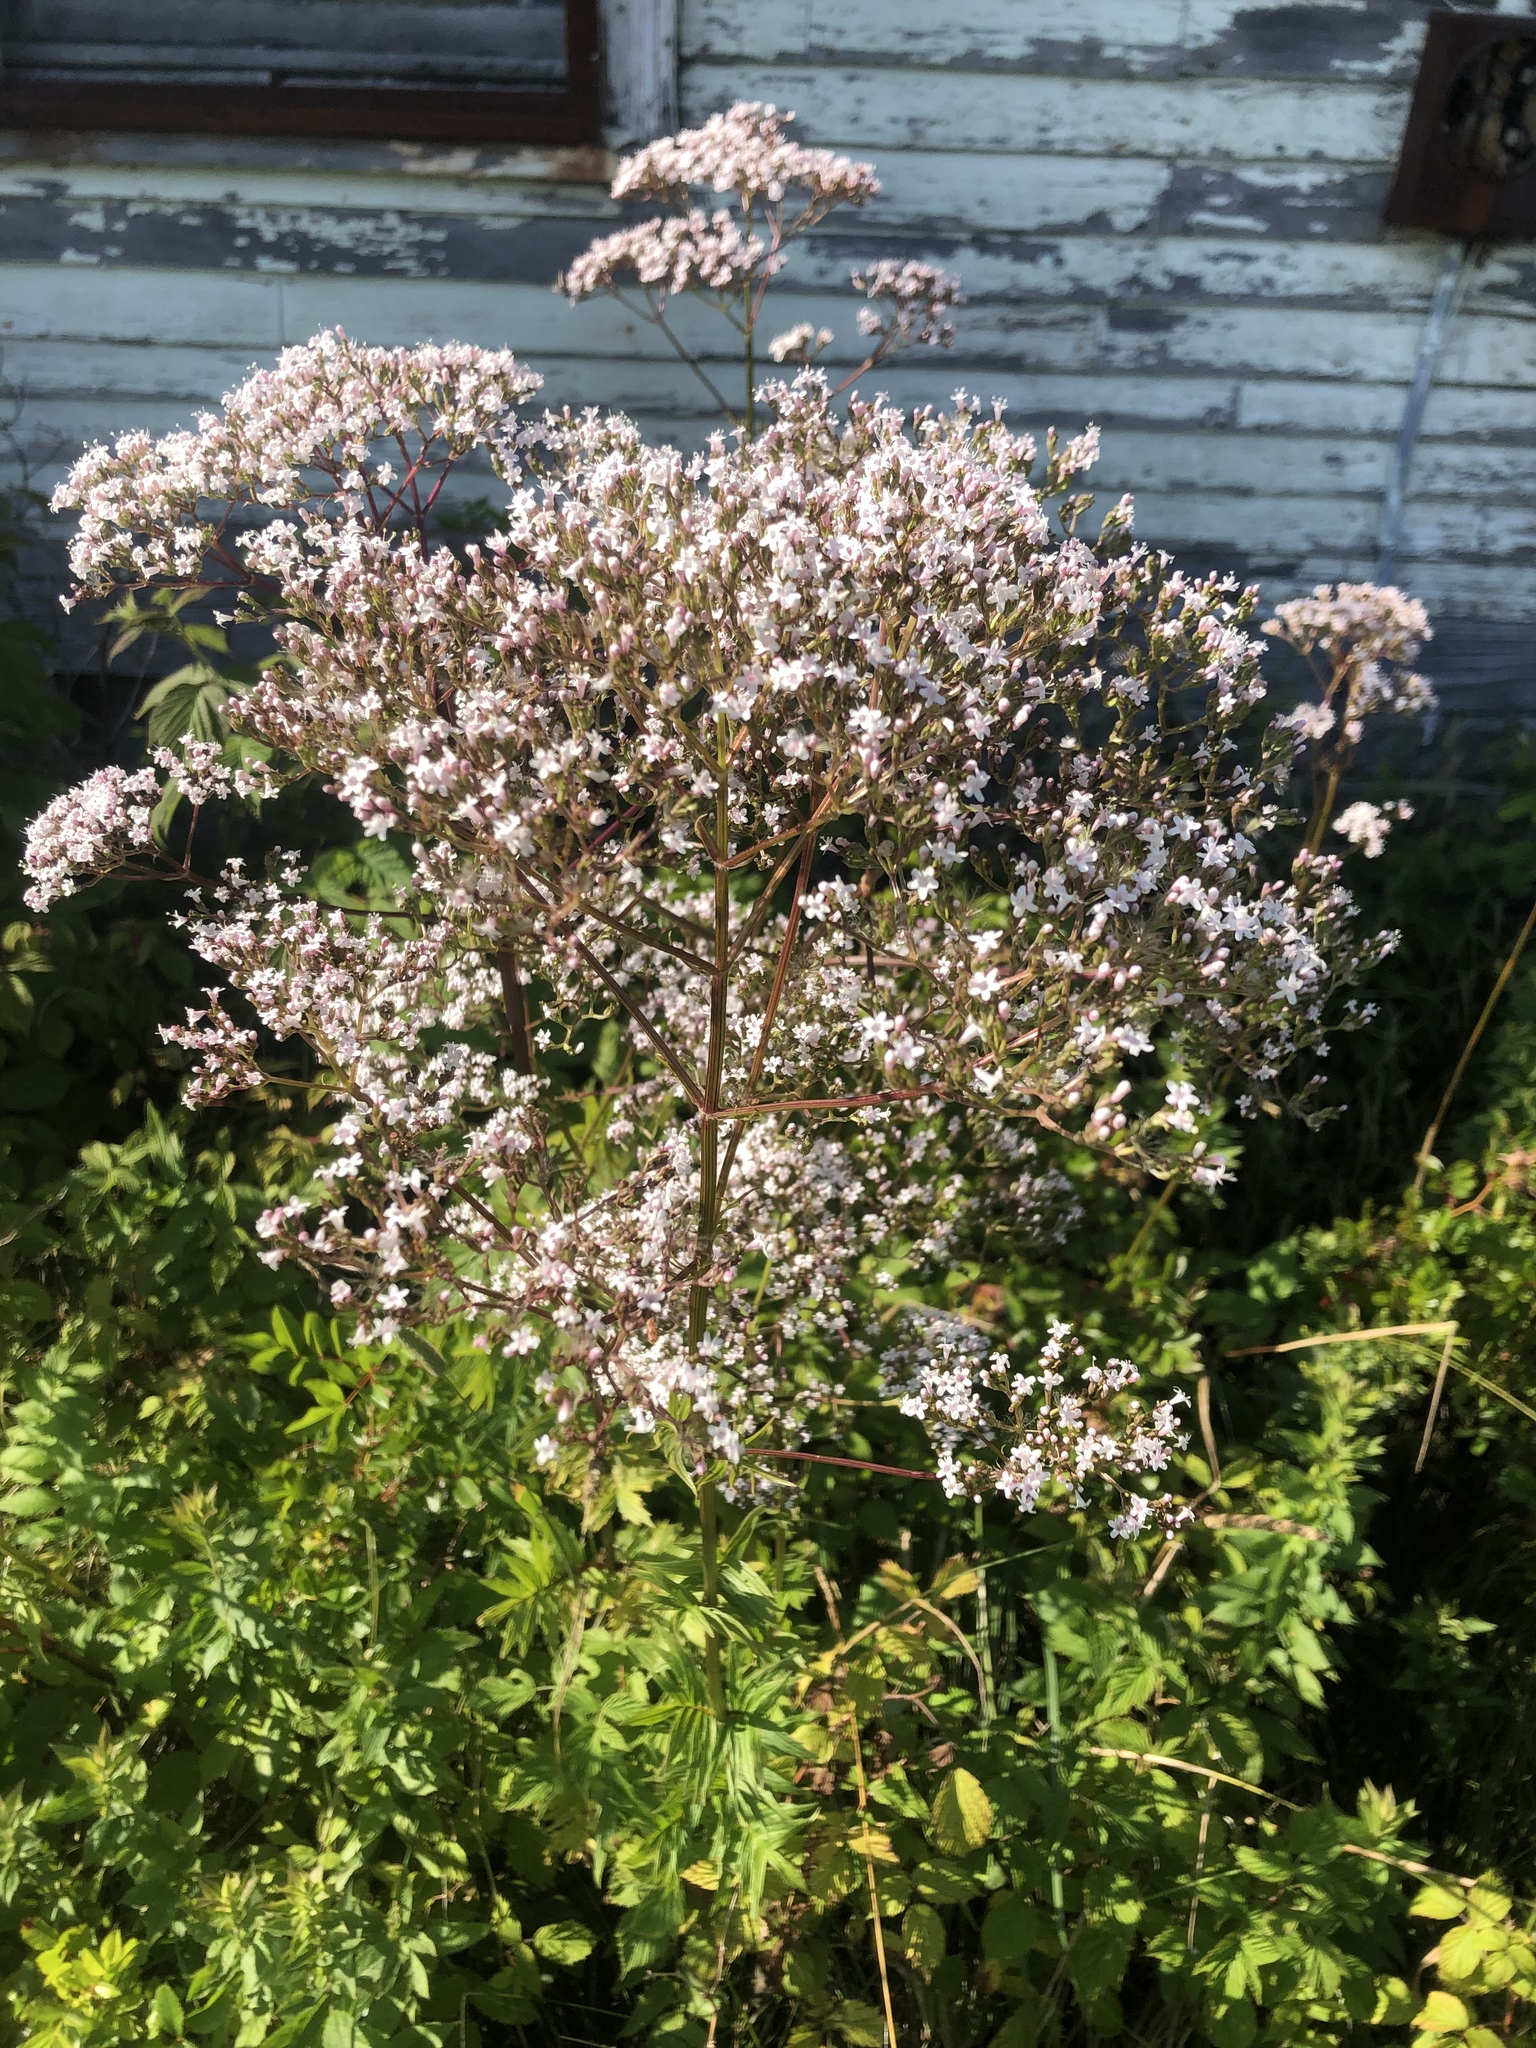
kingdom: Plantae
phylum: Tracheophyta
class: Magnoliopsida
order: Dipsacales
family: Caprifoliaceae
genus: Valeriana
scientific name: Valeriana officinalis
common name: Common valerian
